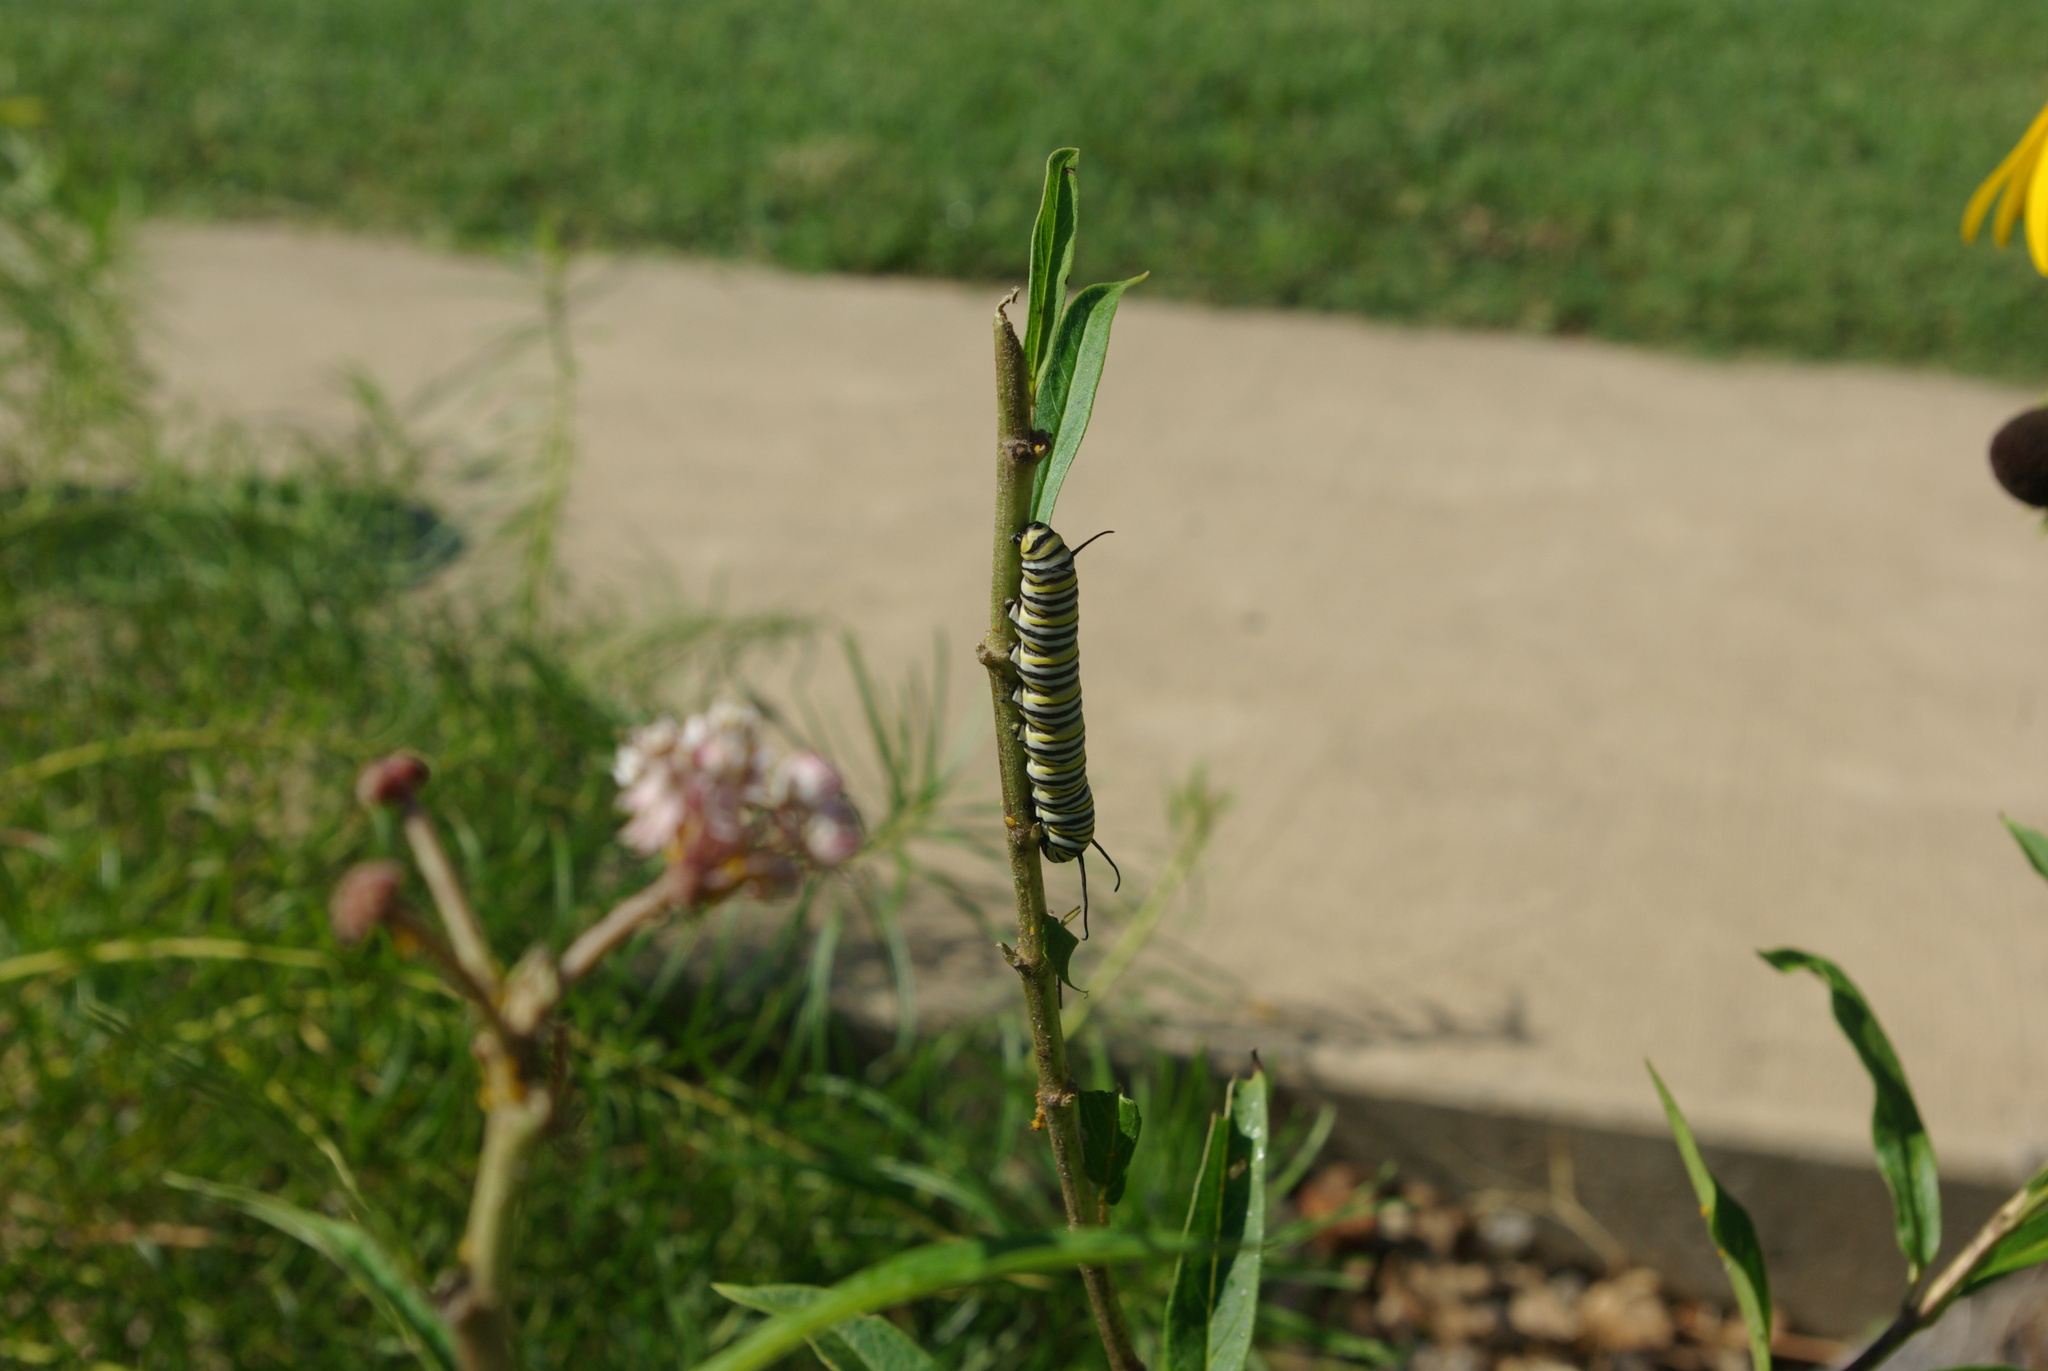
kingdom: Animalia
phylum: Arthropoda
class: Insecta
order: Lepidoptera
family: Nymphalidae
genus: Danaus
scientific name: Danaus plexippus
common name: Monarch
